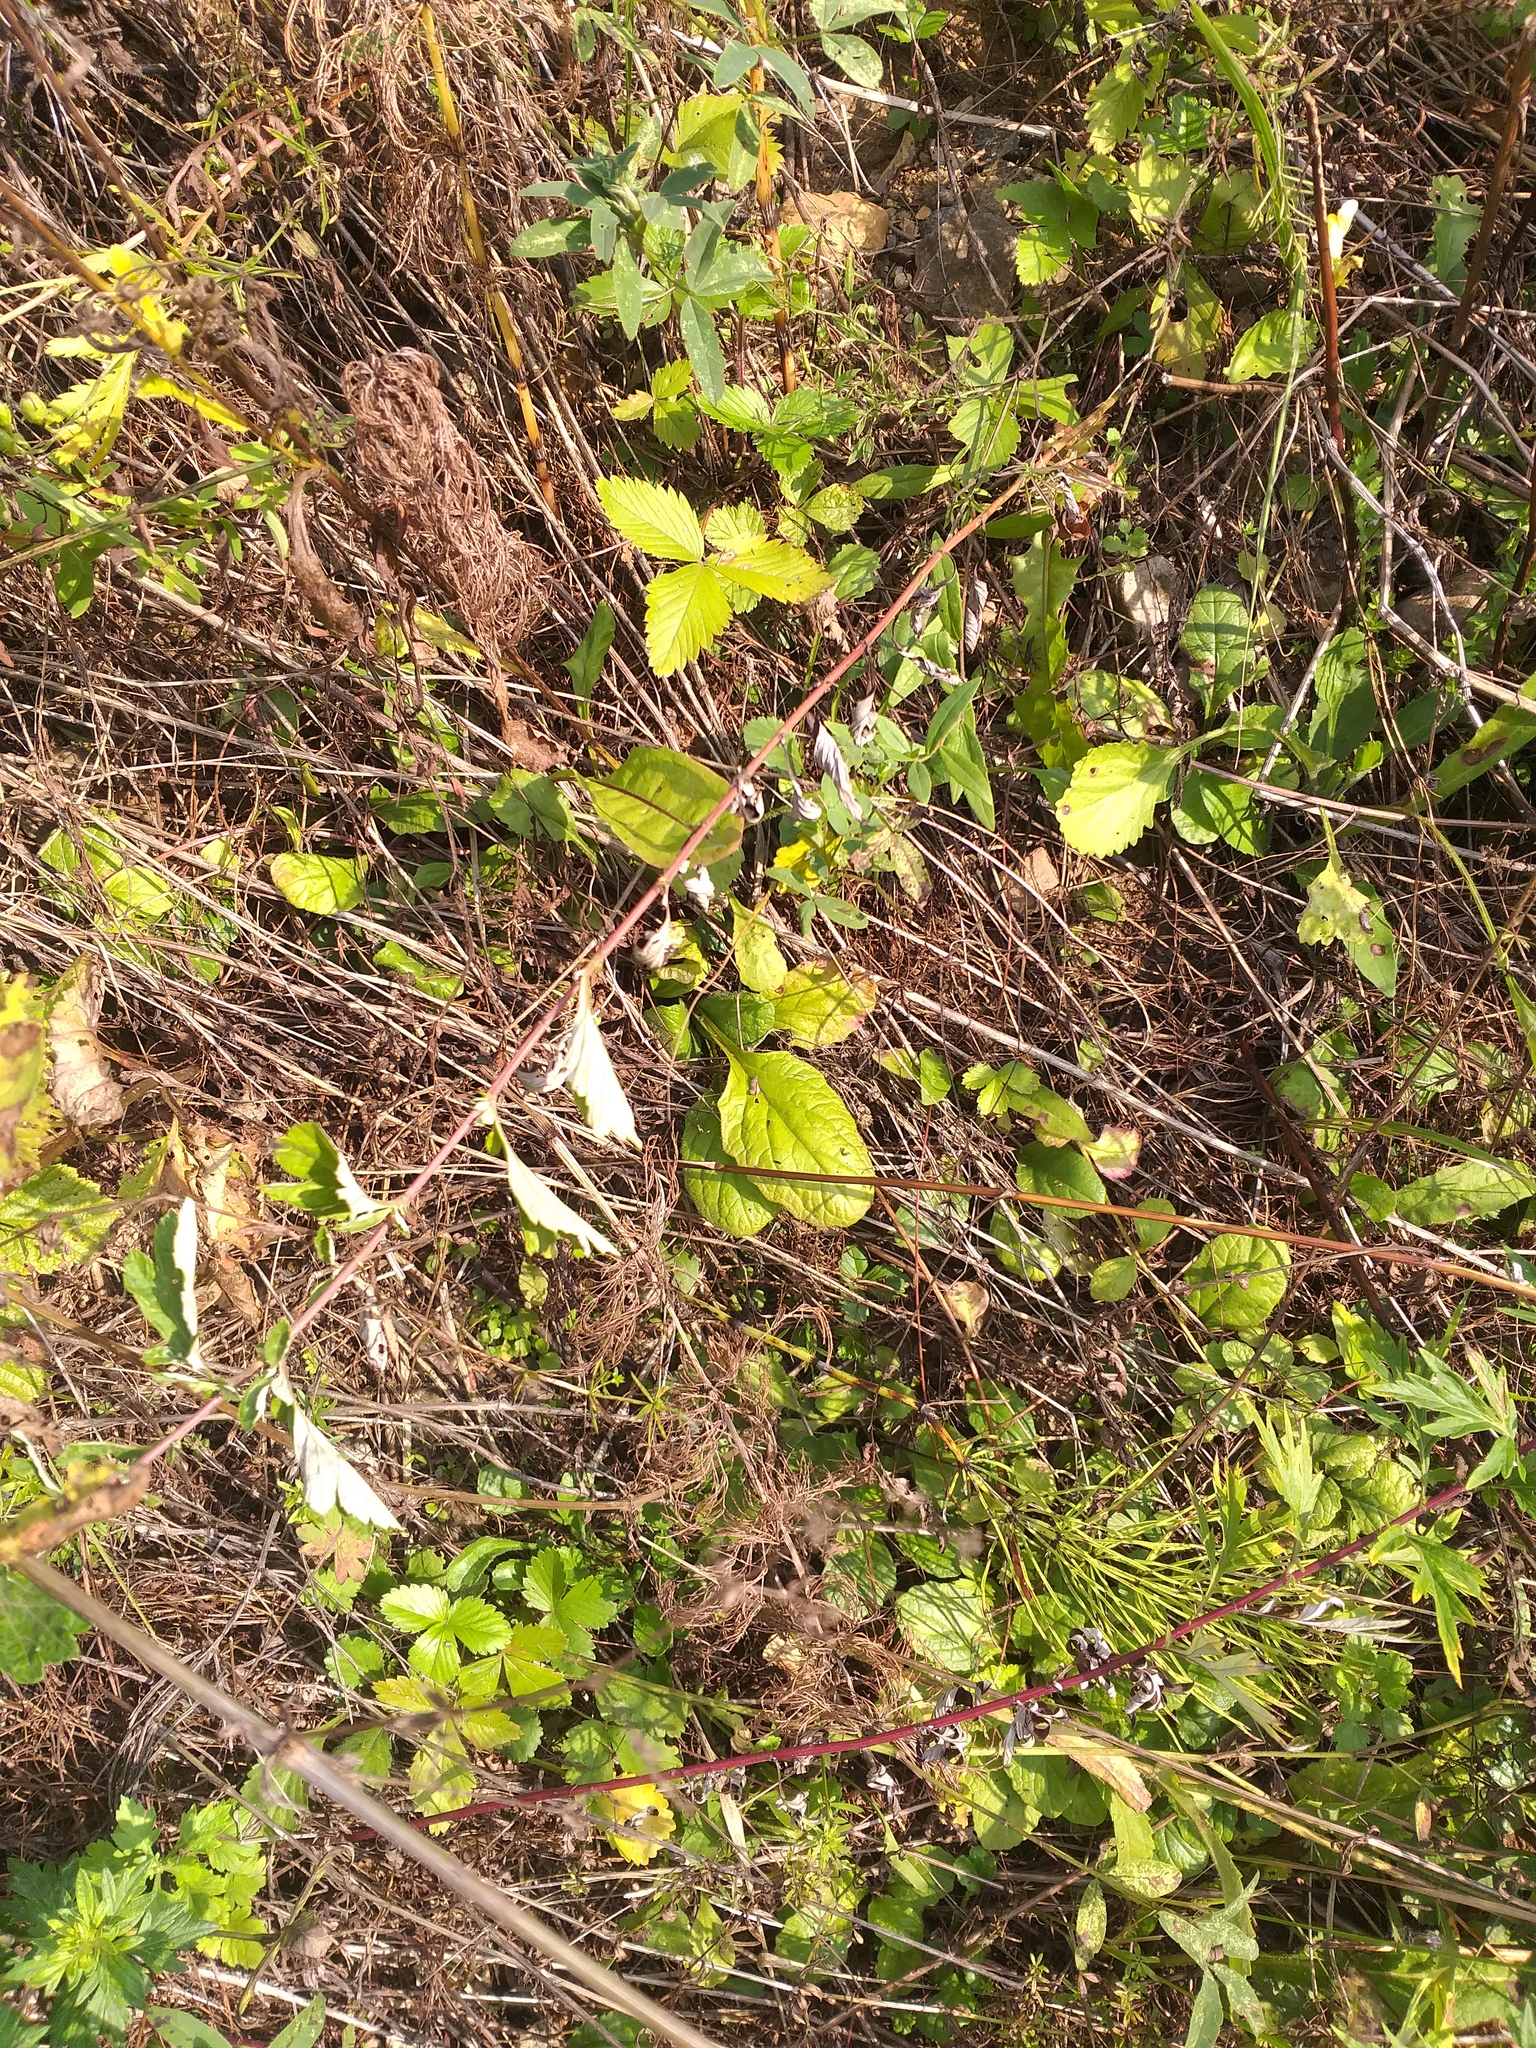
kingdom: Plantae
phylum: Tracheophyta
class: Magnoliopsida
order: Lamiales
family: Lamiaceae
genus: Ajuga
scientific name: Ajuga reptans
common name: Bugle
